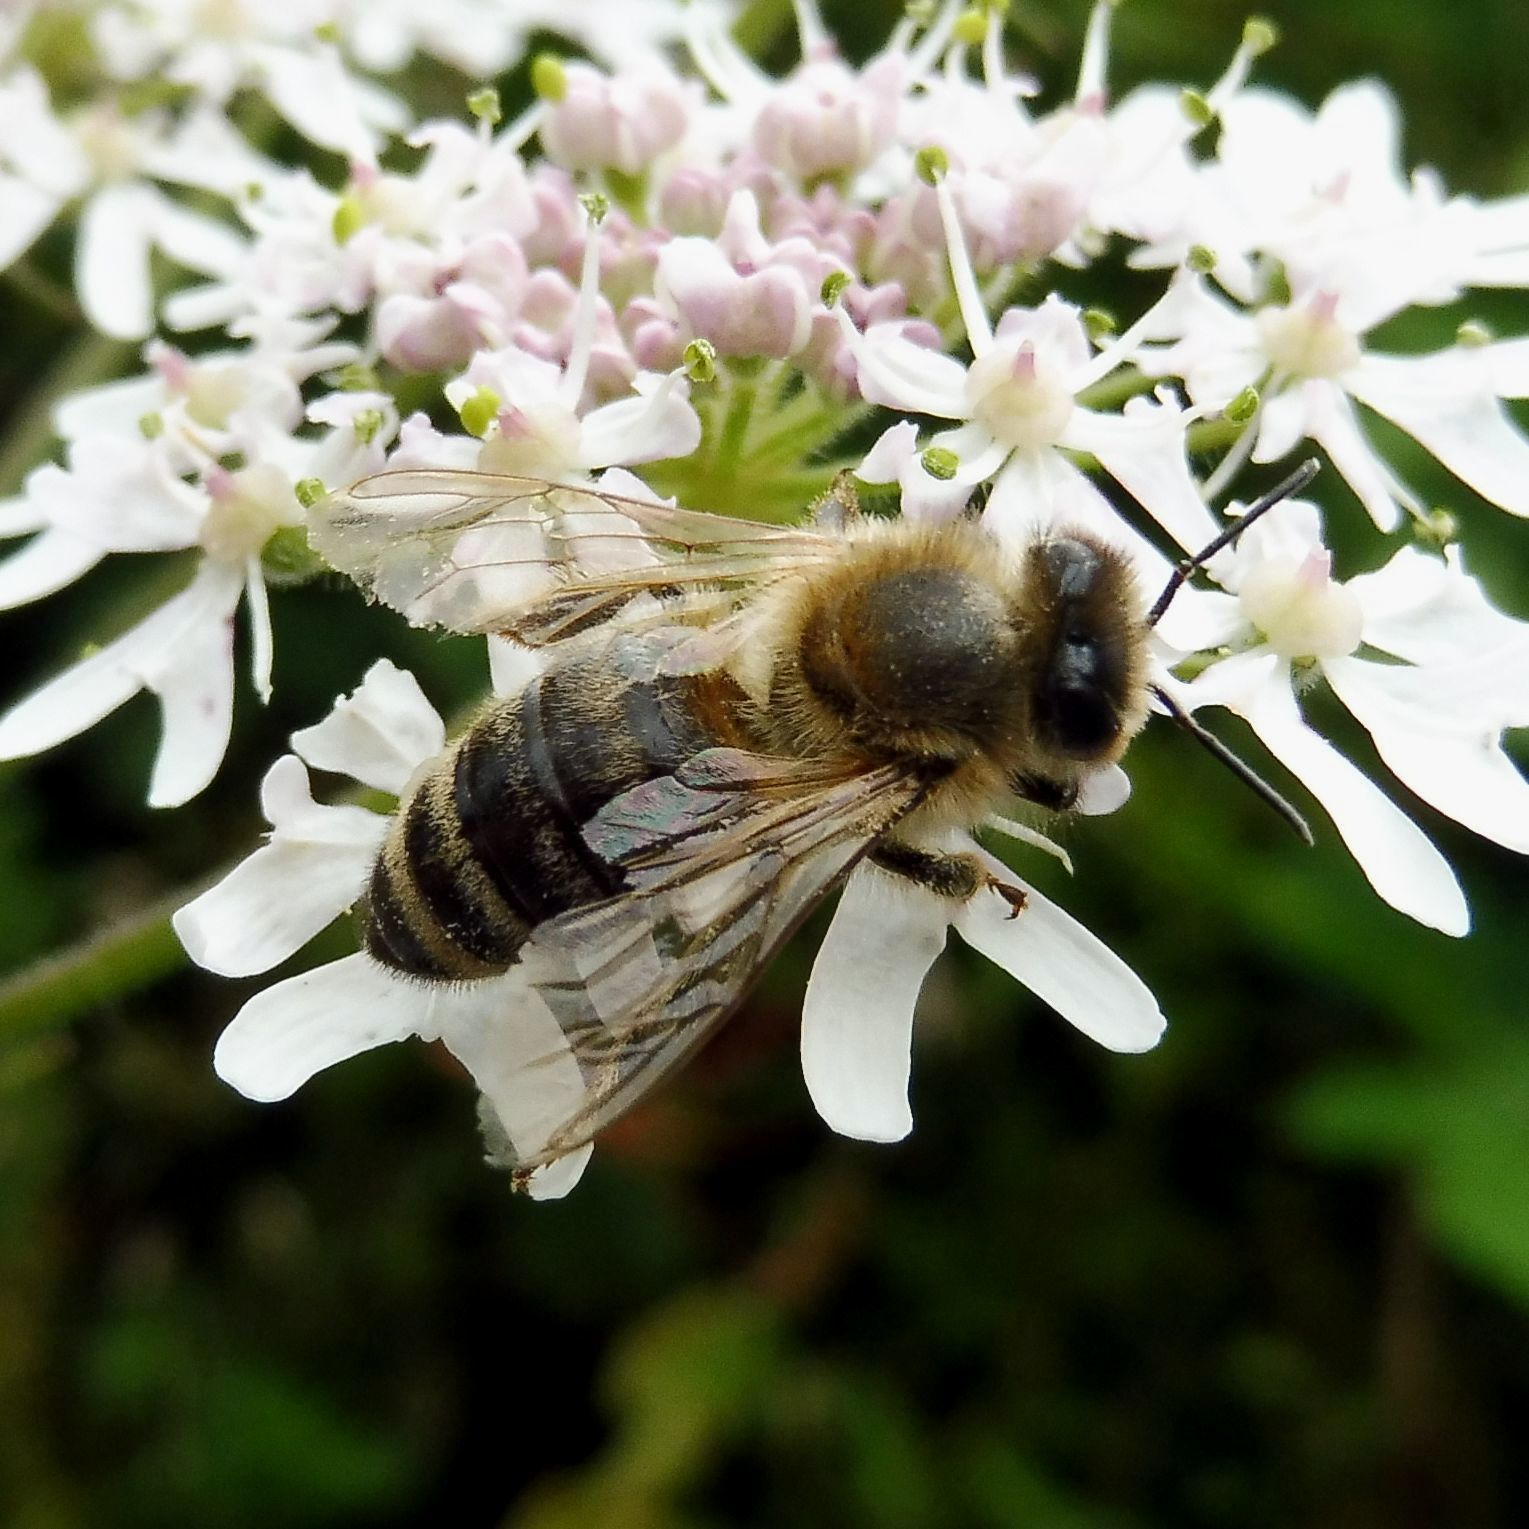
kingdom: Animalia
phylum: Arthropoda
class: Insecta
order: Hymenoptera
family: Apidae
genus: Apis
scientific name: Apis mellifera
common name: Honey bee
